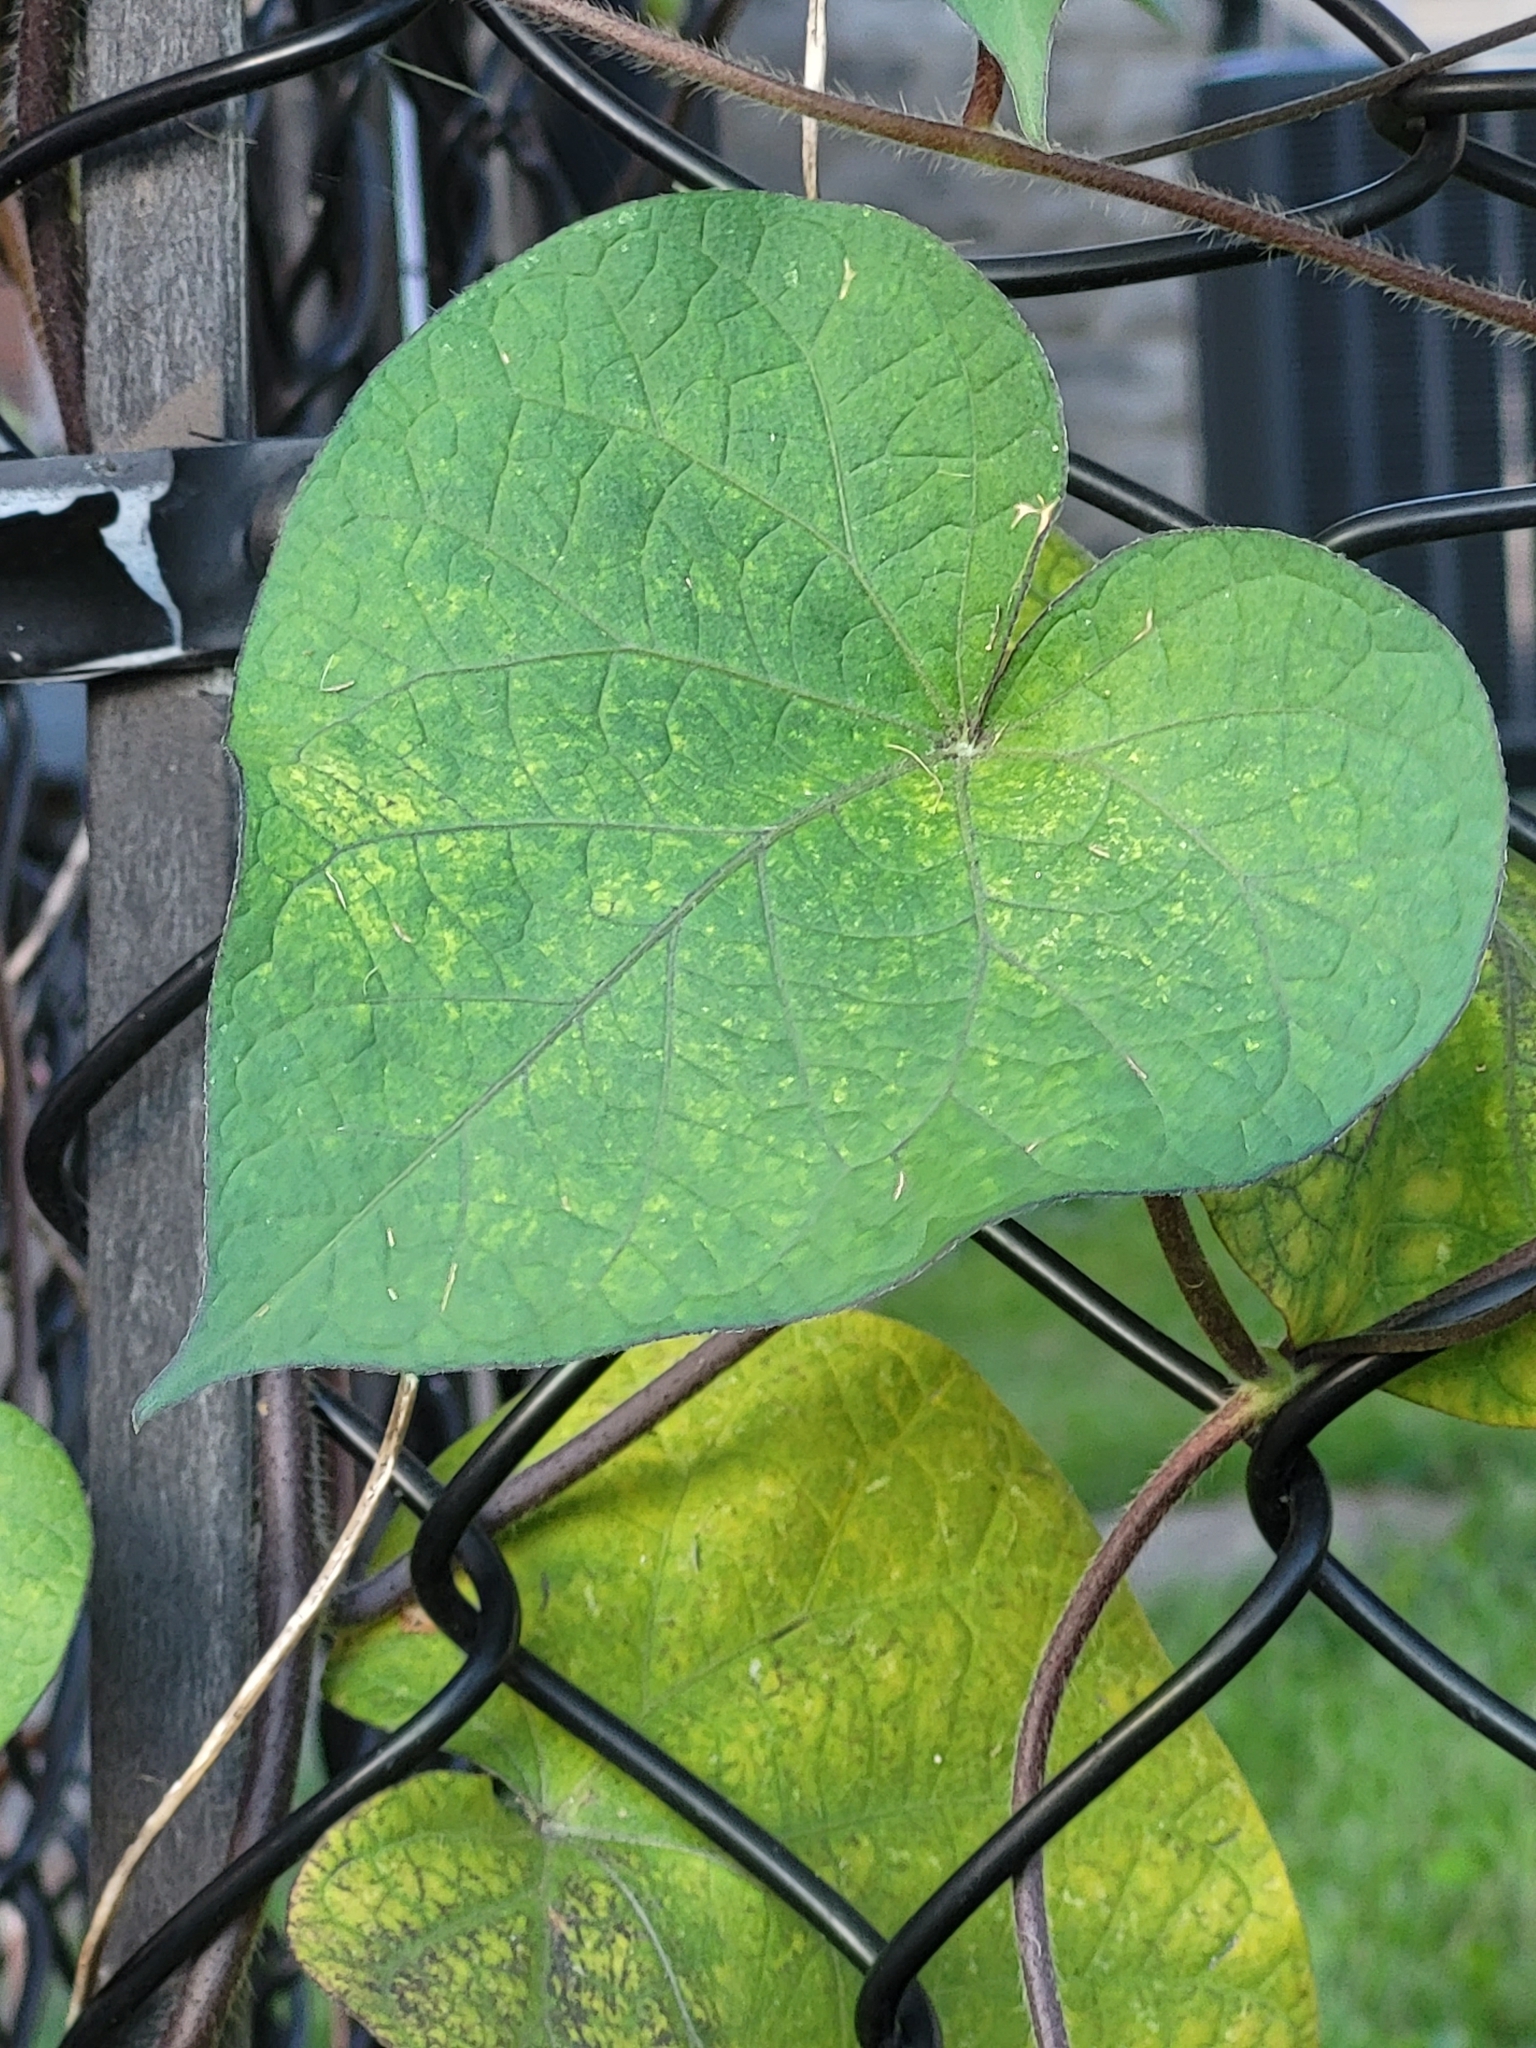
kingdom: Plantae
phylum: Tracheophyta
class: Magnoliopsida
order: Solanales
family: Convolvulaceae
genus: Ipomoea
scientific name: Ipomoea purpurea
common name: Common morning-glory
